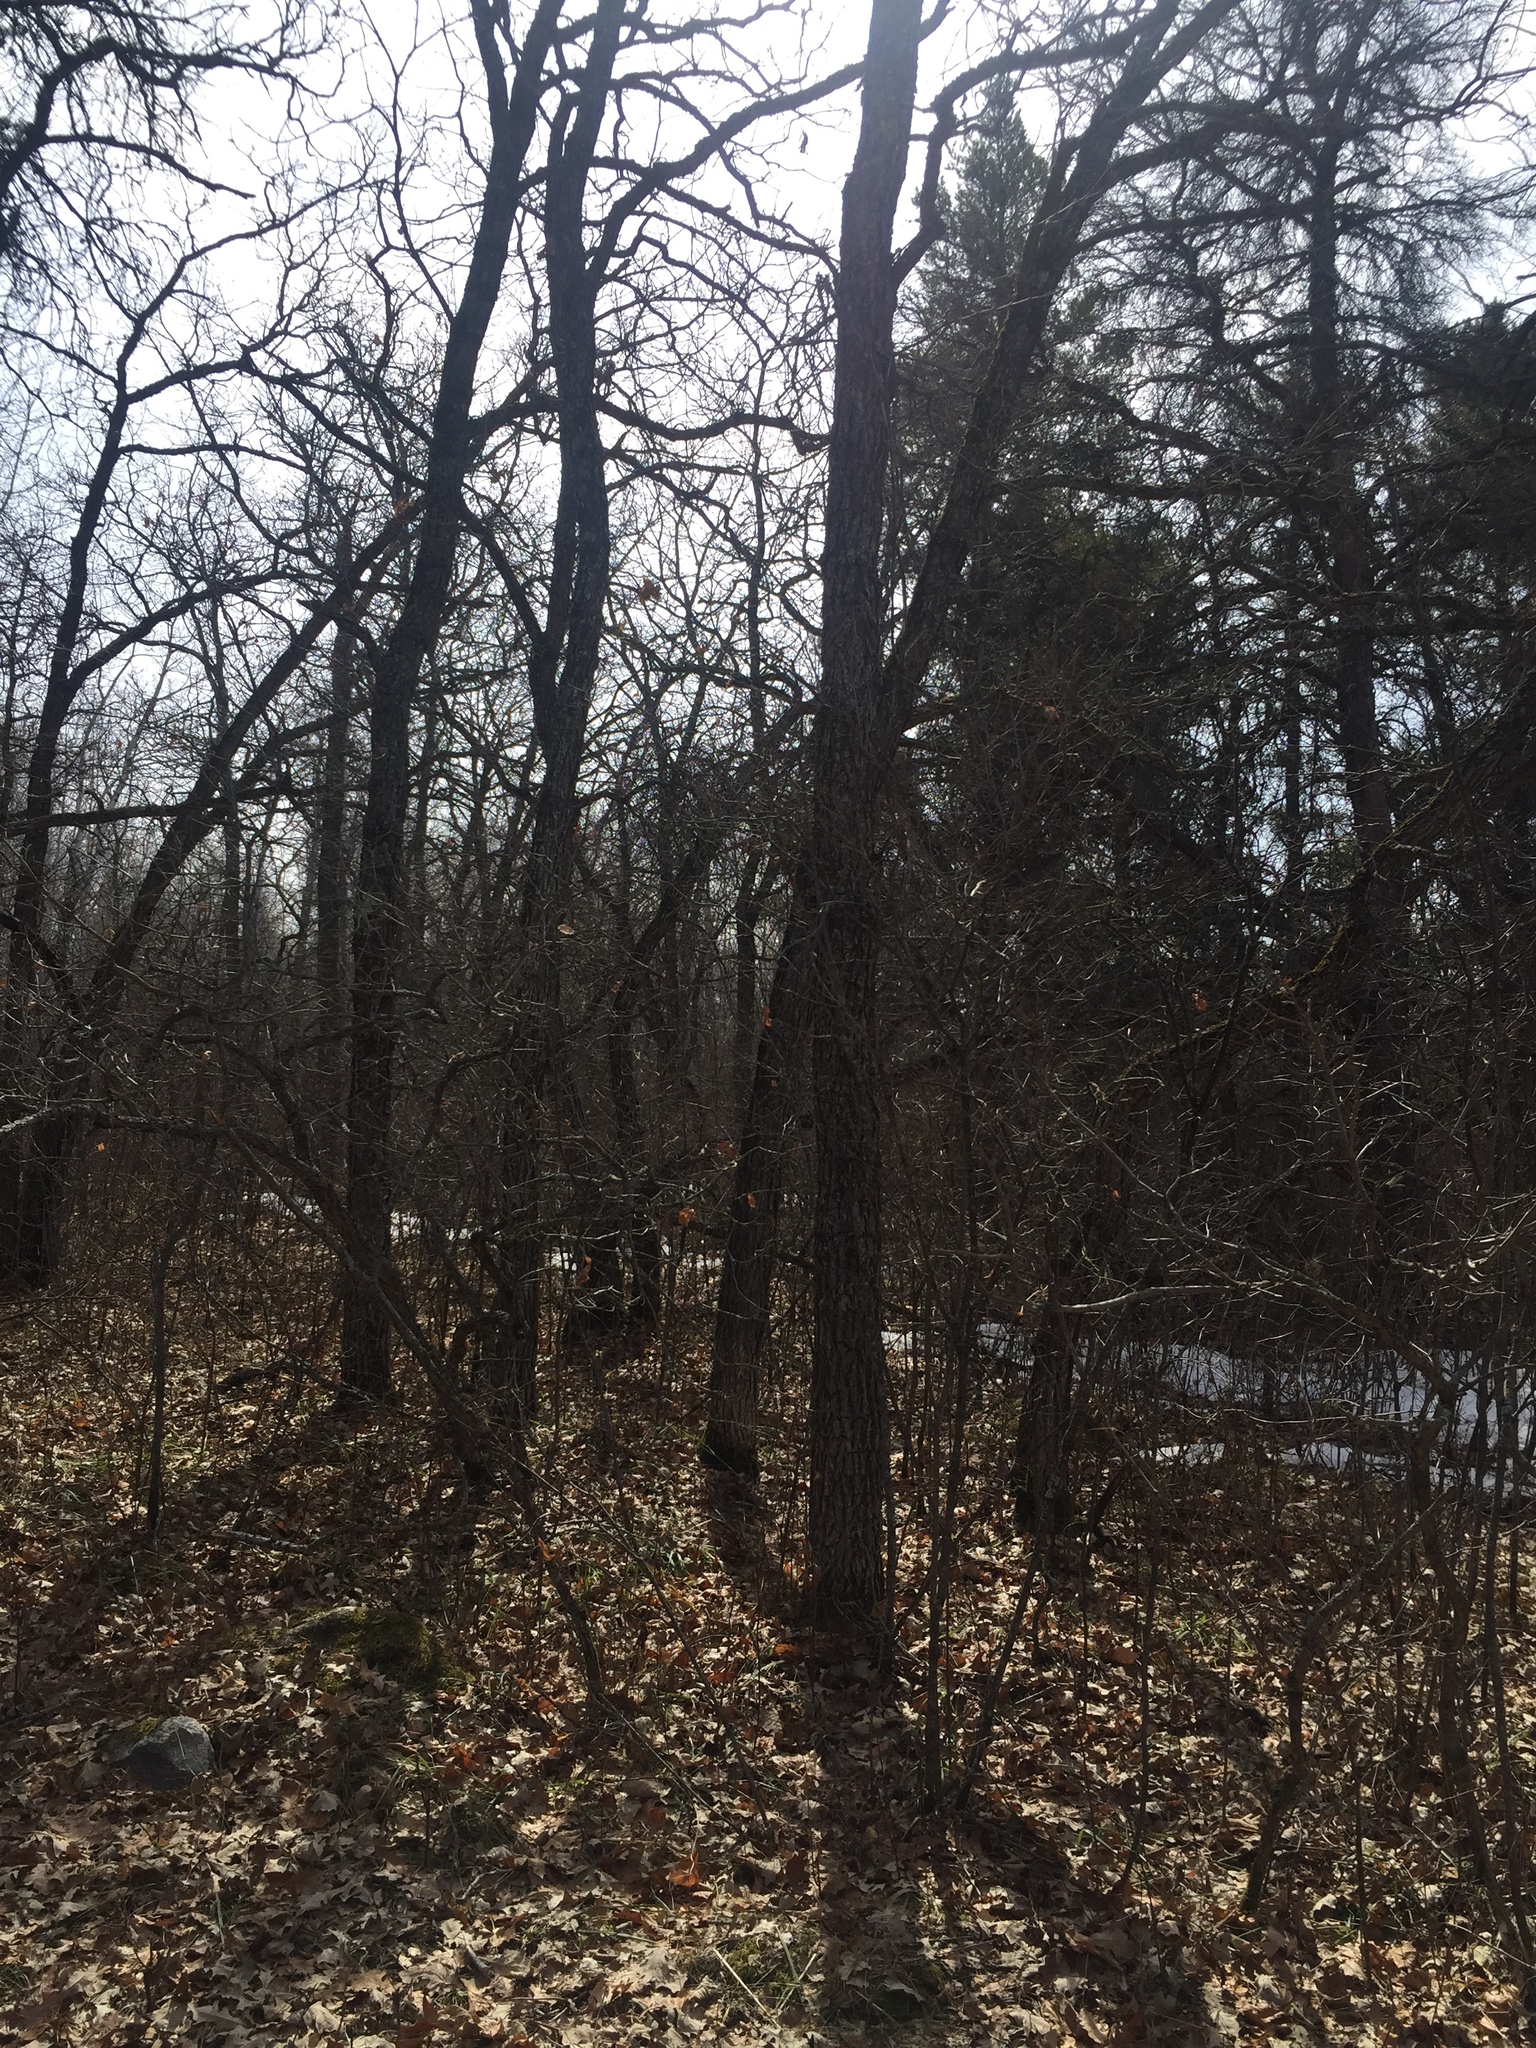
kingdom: Plantae
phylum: Tracheophyta
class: Magnoliopsida
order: Fagales
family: Fagaceae
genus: Quercus
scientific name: Quercus macrocarpa
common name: Bur oak
